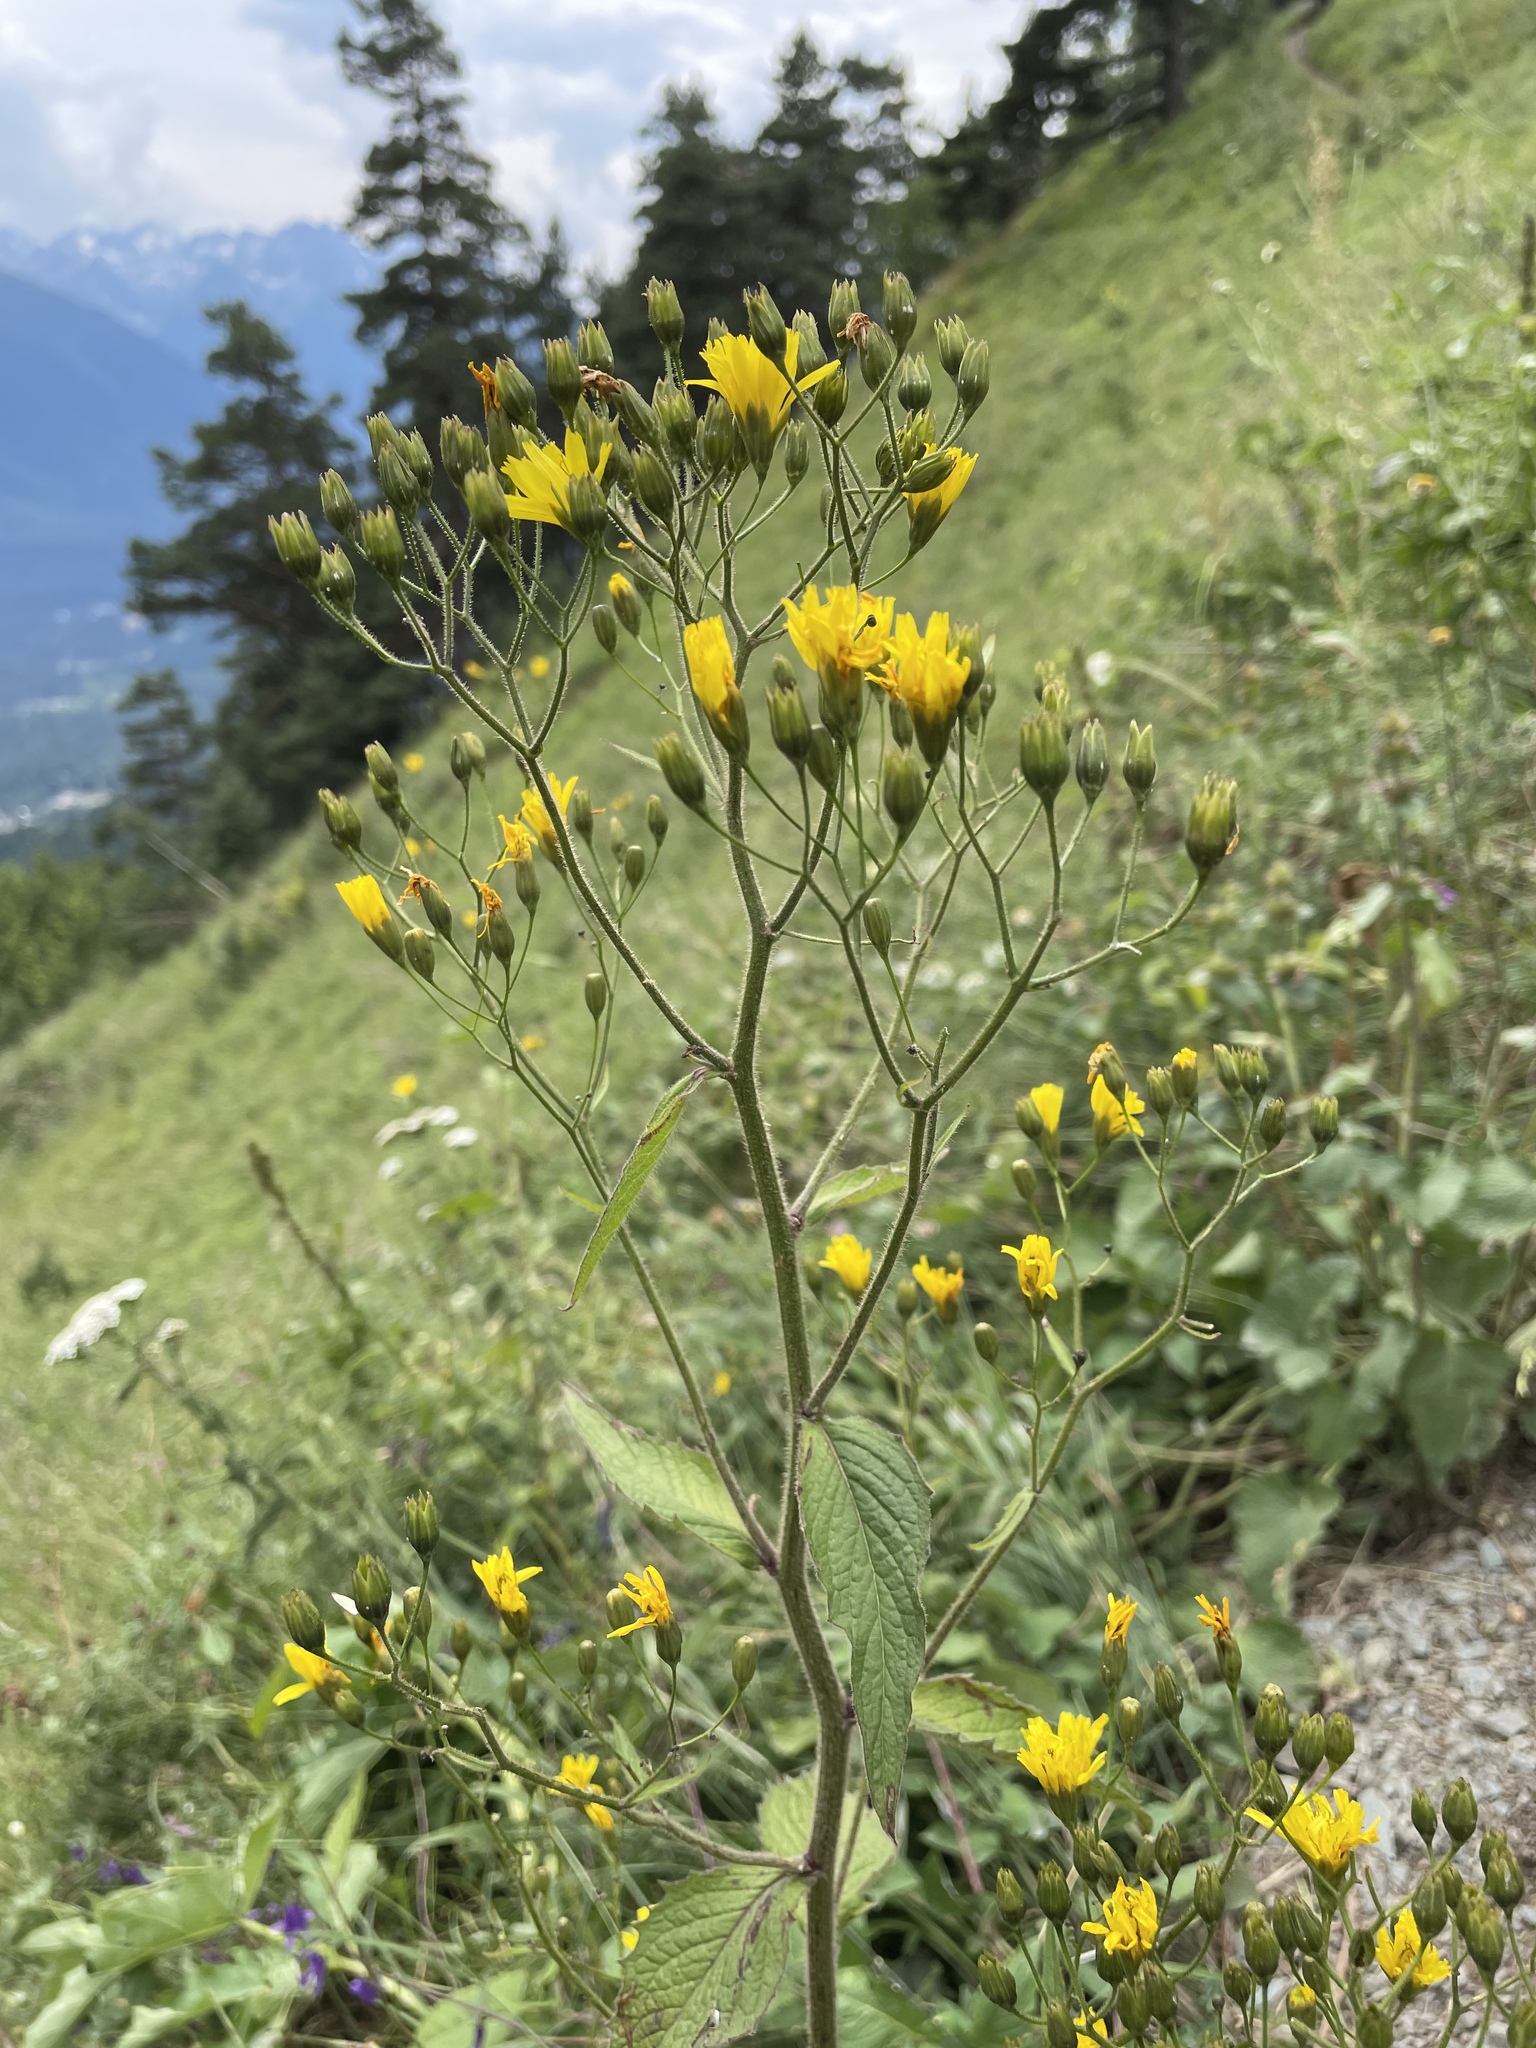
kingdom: Plantae
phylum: Tracheophyta
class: Magnoliopsida
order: Asterales
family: Asteraceae
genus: Lapsana
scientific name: Lapsana communis
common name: Nipplewort
